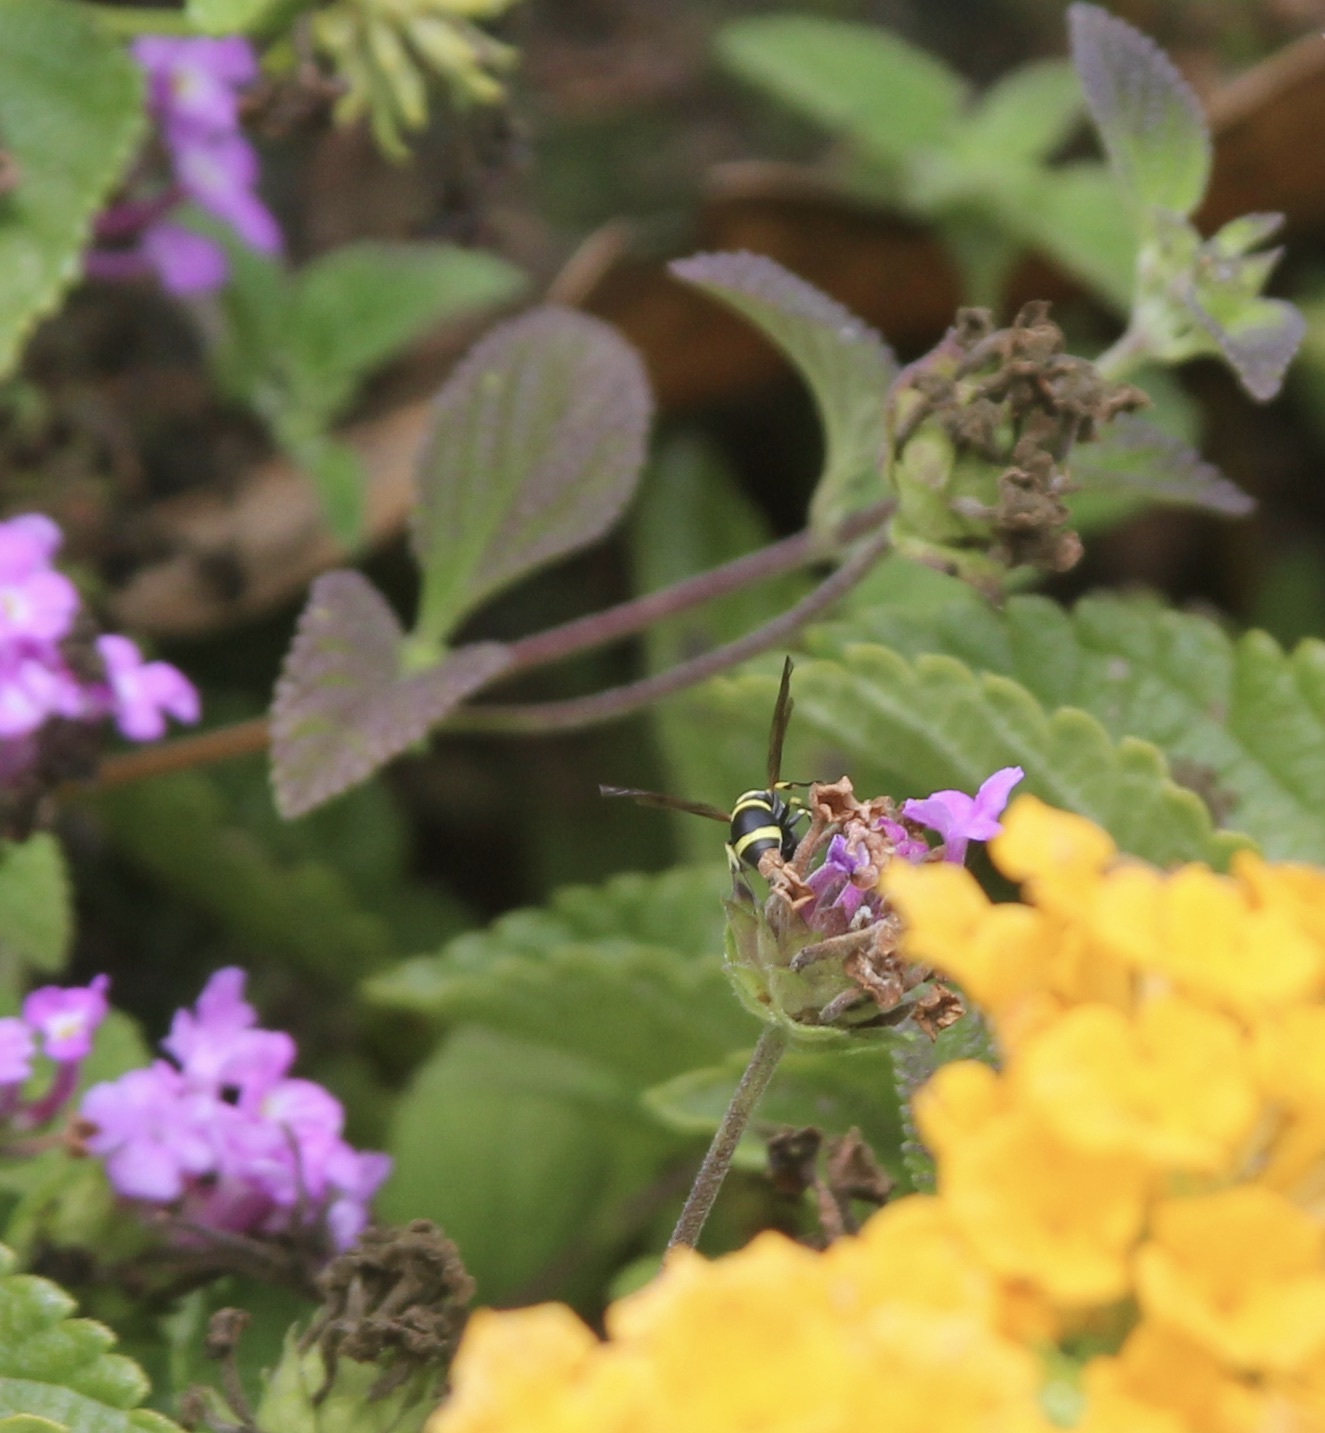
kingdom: Animalia
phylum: Arthropoda
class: Insecta
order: Hymenoptera
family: Eumenidae
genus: Parancistrocerus
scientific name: Parancistrocerus declivatus
